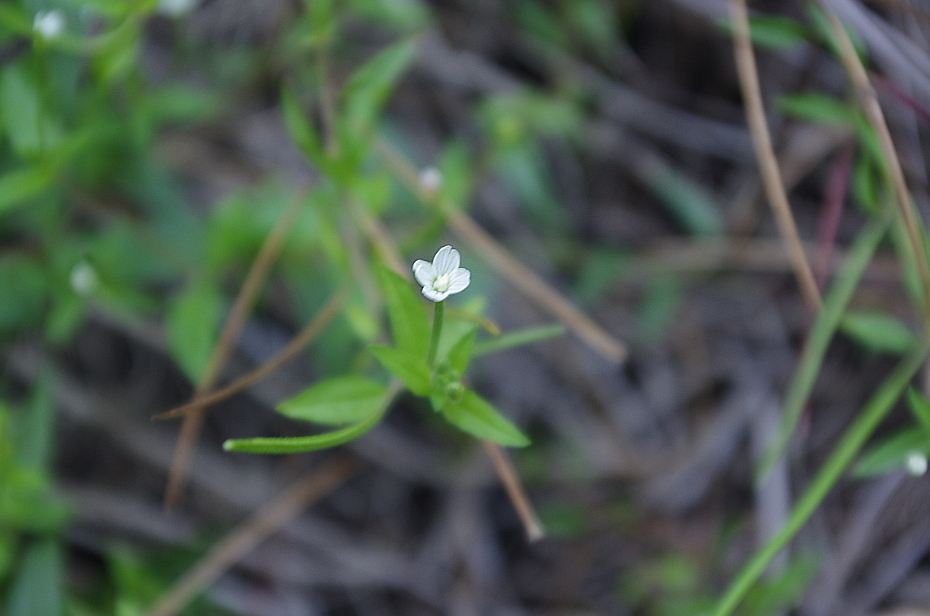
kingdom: Plantae
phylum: Tracheophyta
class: Magnoliopsida
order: Myrtales
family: Onagraceae
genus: Epilobium
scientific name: Epilobium palustre
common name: Marsh willowherb
